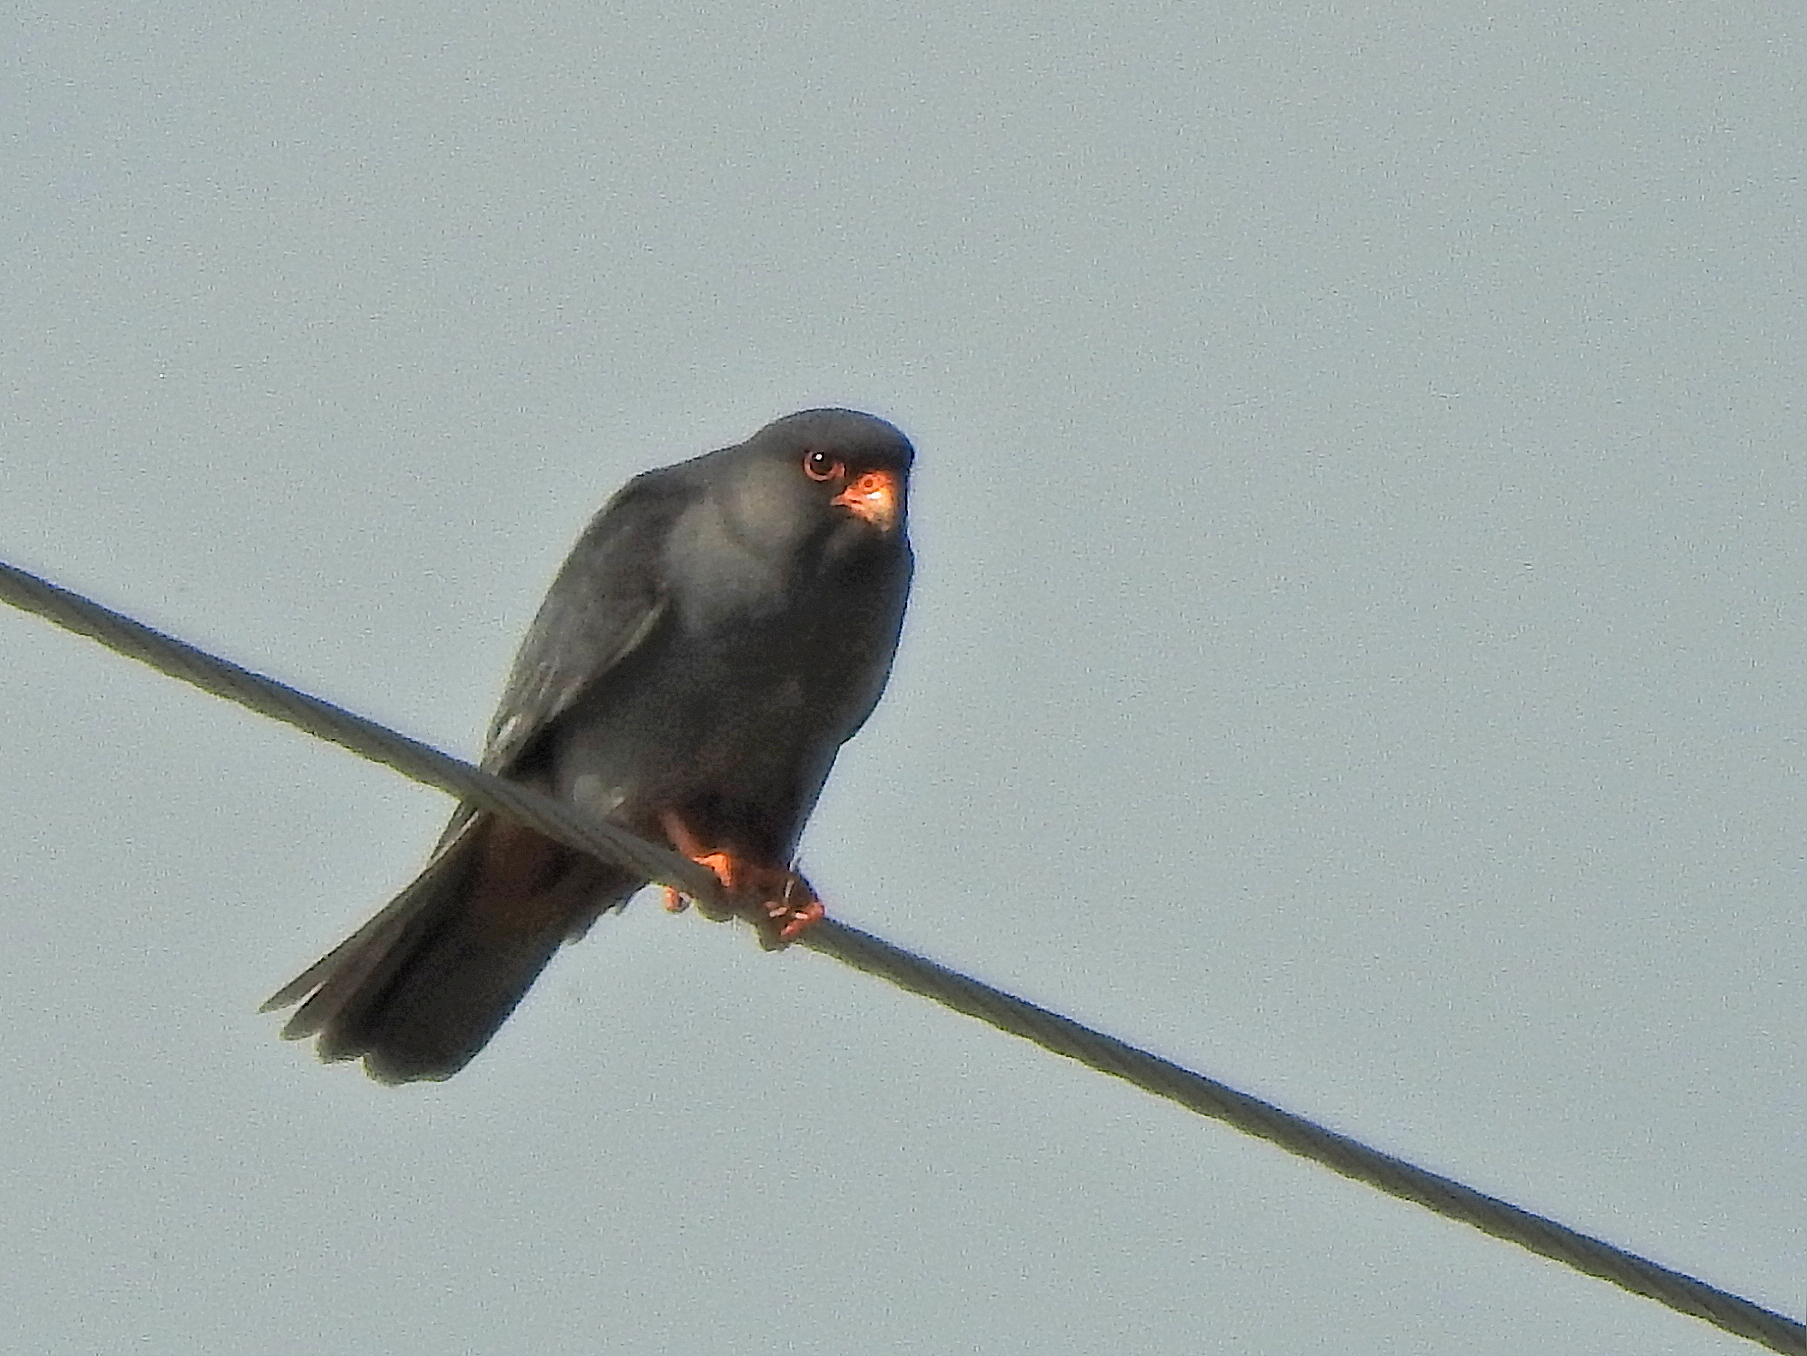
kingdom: Animalia
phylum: Chordata
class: Aves
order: Falconiformes
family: Falconidae
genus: Falco
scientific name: Falco amurensis
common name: Amur falcon
